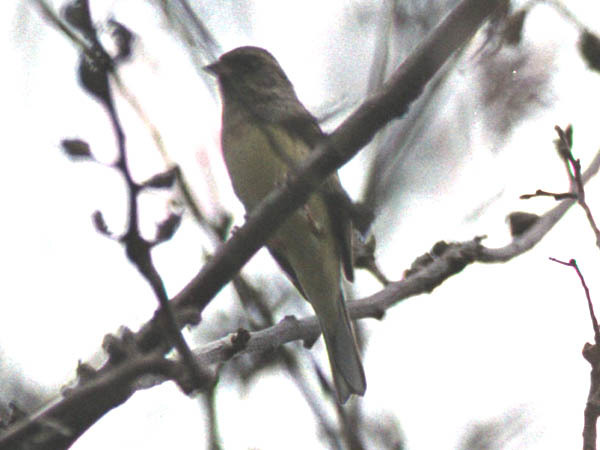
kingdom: Animalia
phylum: Chordata
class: Aves
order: Passeriformes
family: Emberizidae
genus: Emberiza
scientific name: Emberiza spodocephala
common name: Black-faced bunting
